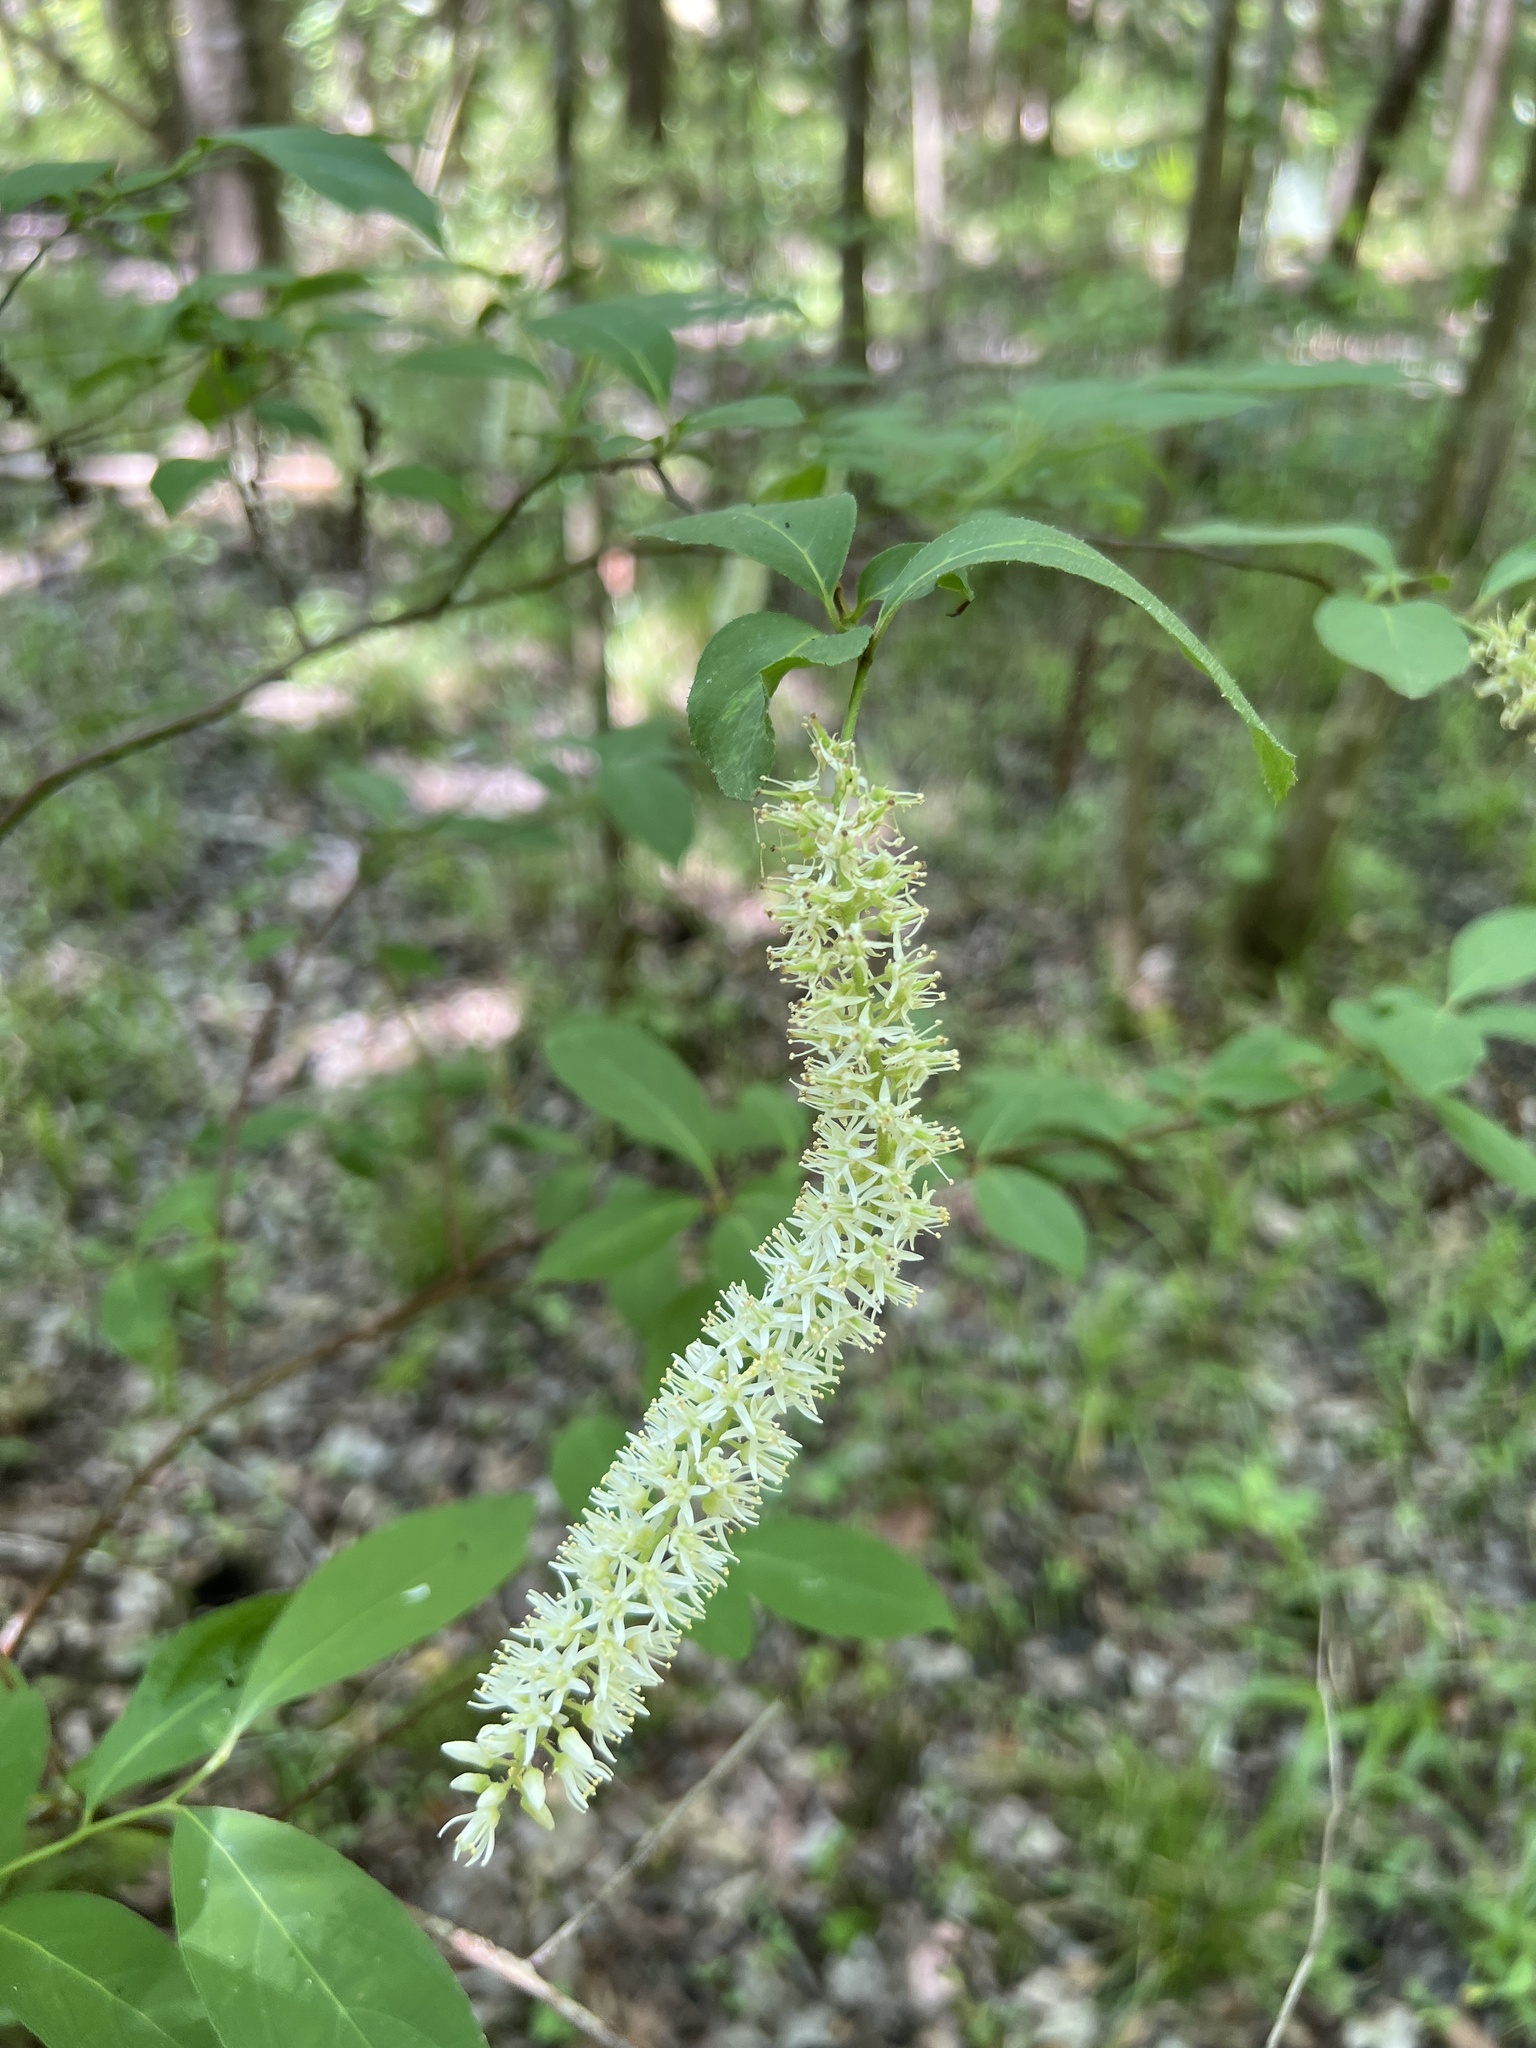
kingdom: Plantae
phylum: Tracheophyta
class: Magnoliopsida
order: Saxifragales
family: Iteaceae
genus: Itea
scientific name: Itea virginica
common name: Sweetspire
